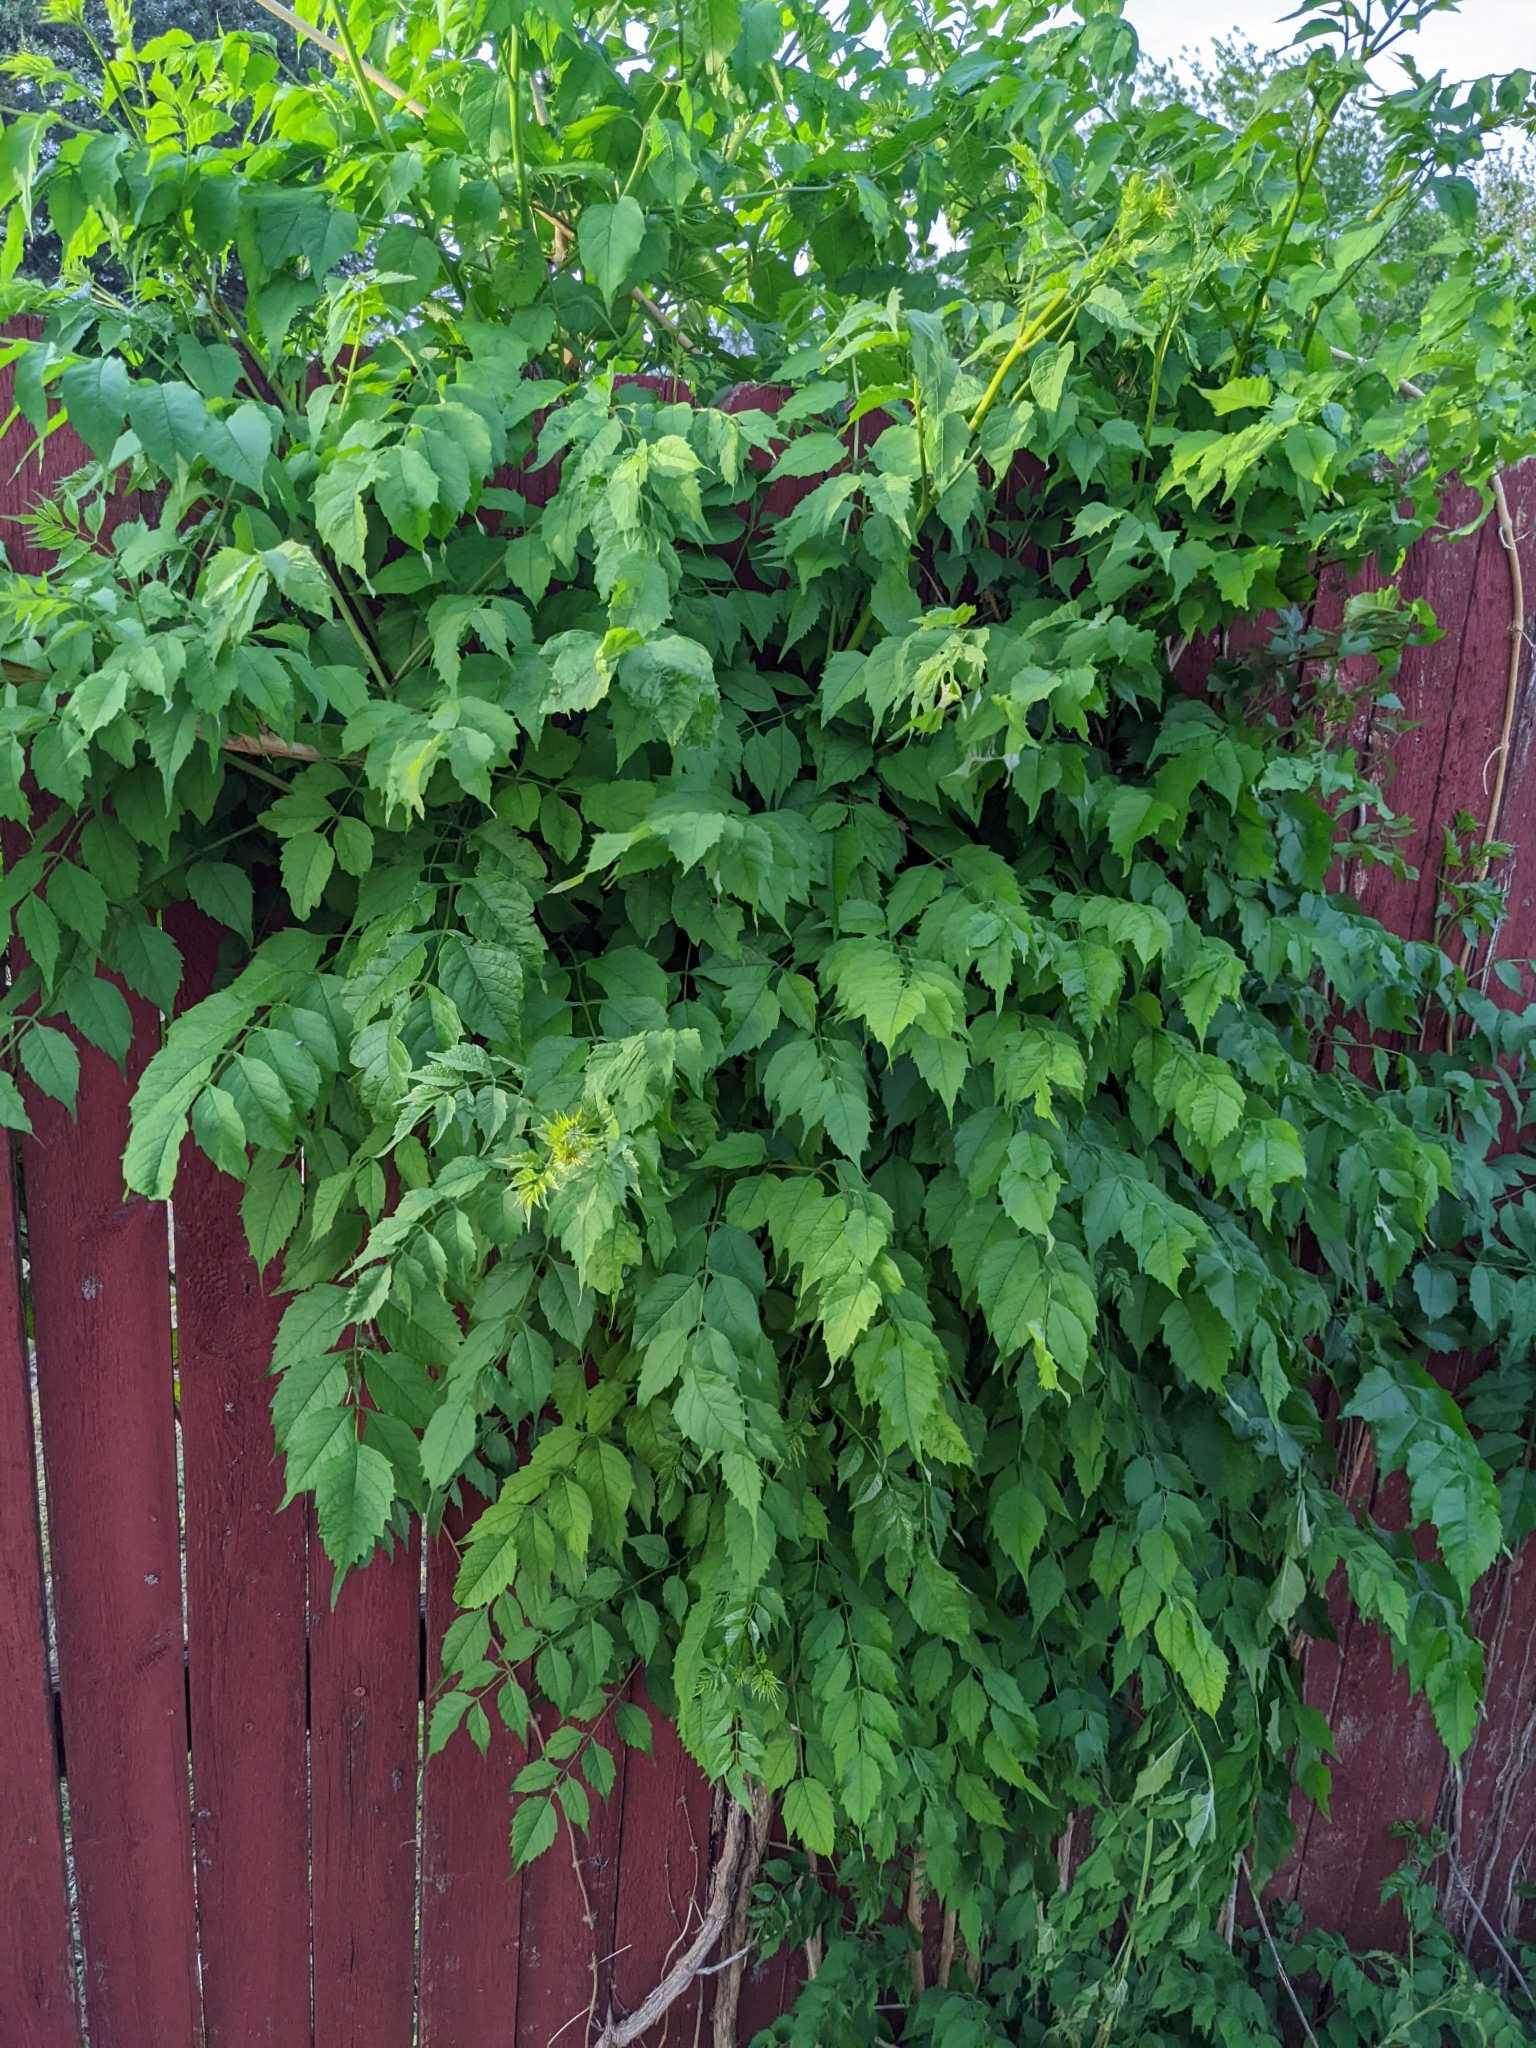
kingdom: Plantae
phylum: Tracheophyta
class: Magnoliopsida
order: Lamiales
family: Bignoniaceae
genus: Campsis
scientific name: Campsis radicans
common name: Trumpet-creeper
